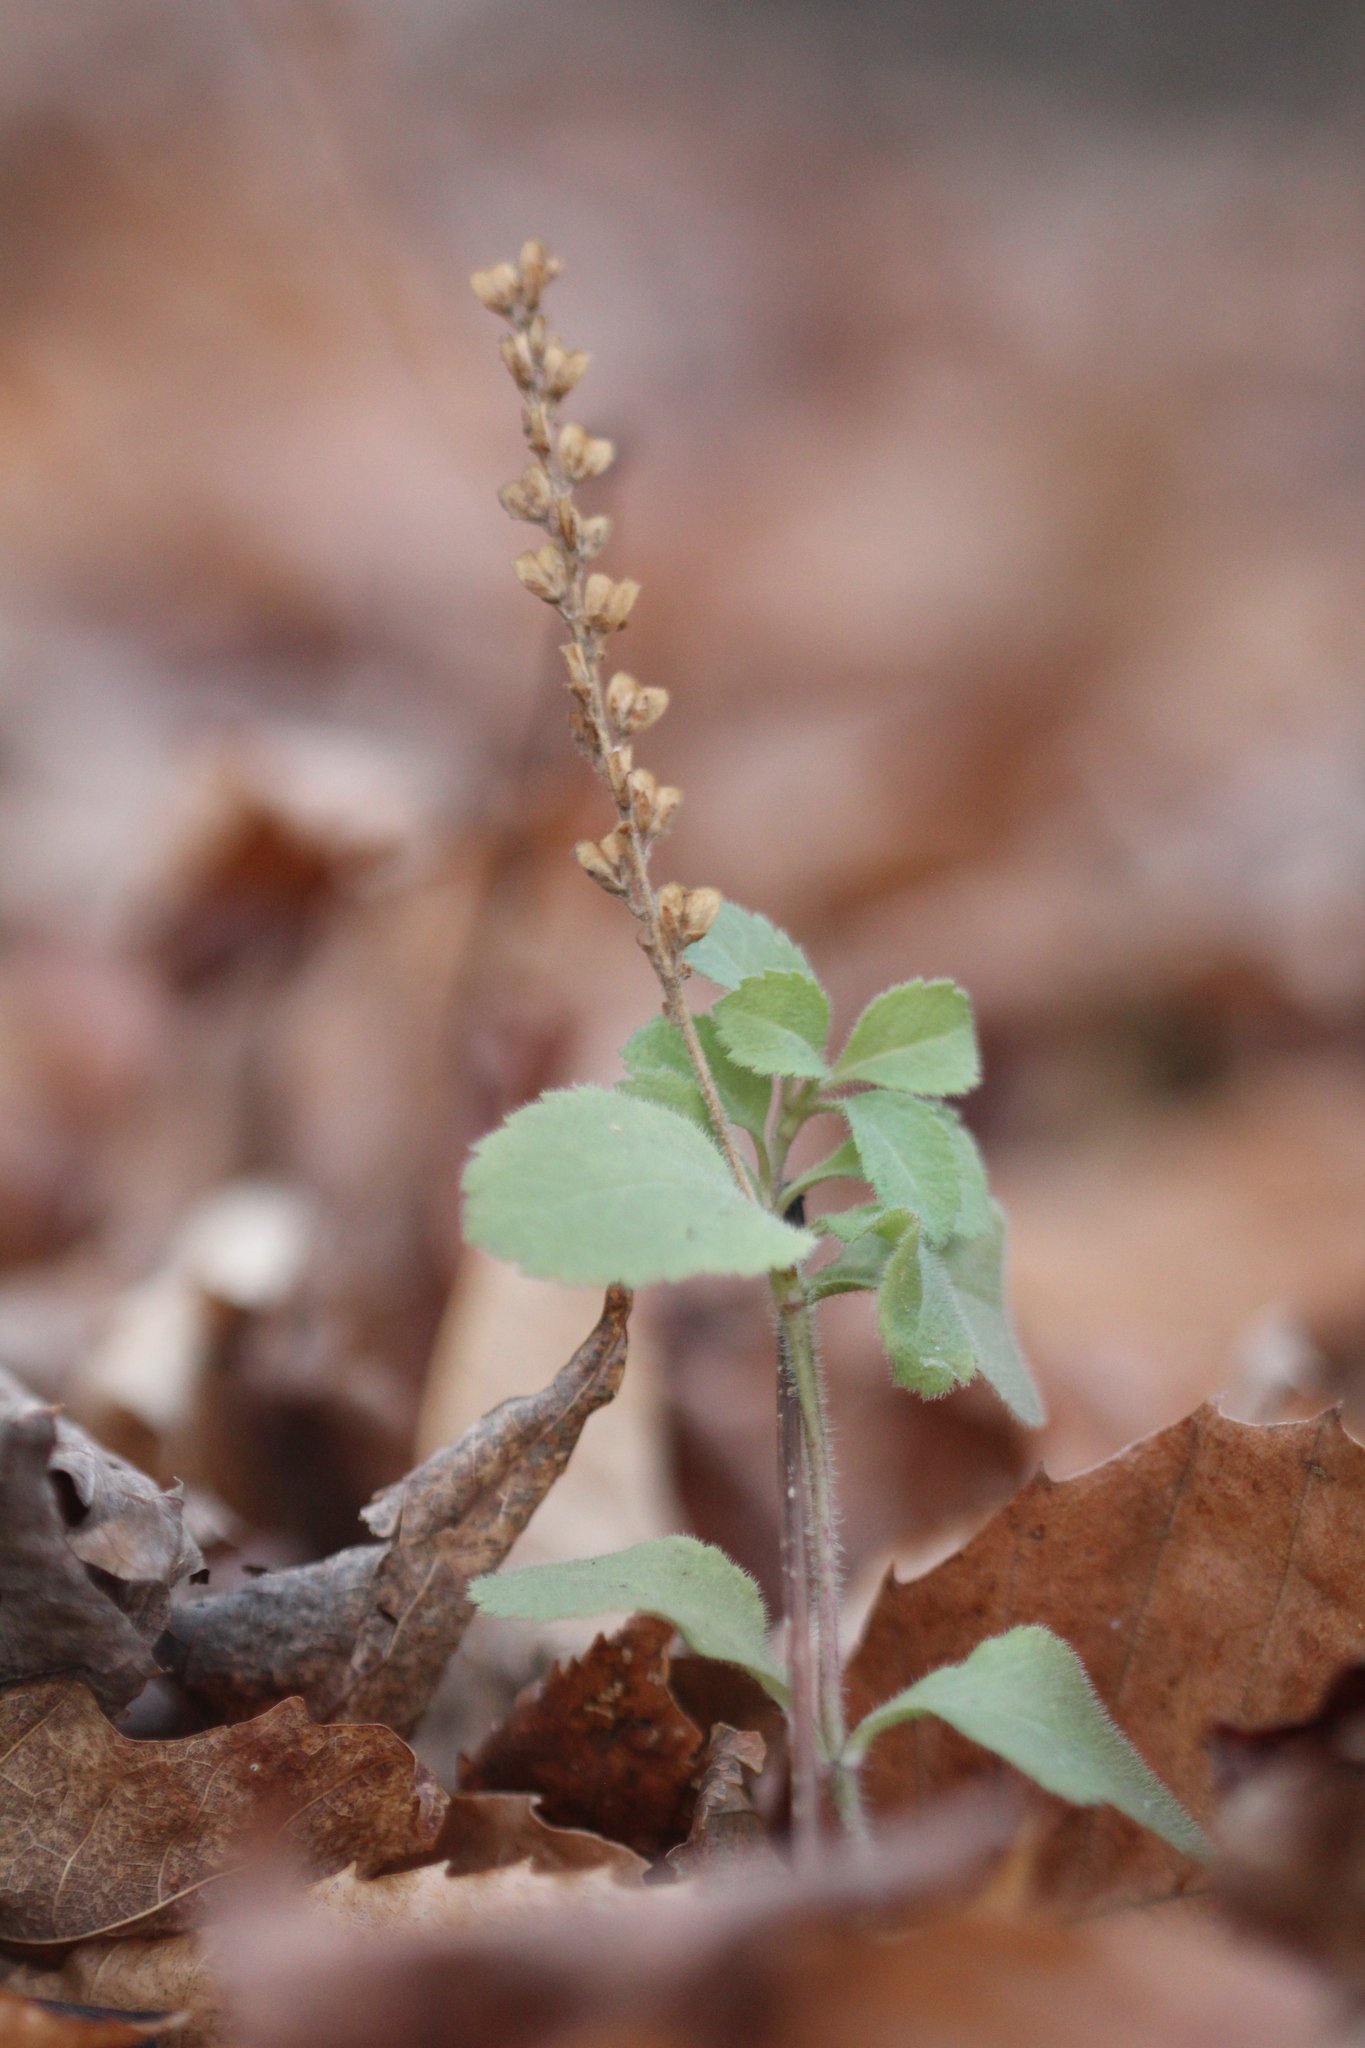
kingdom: Plantae
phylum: Tracheophyta
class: Magnoliopsida
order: Lamiales
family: Plantaginaceae
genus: Veronica
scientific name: Veronica officinalis
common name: Common speedwell
